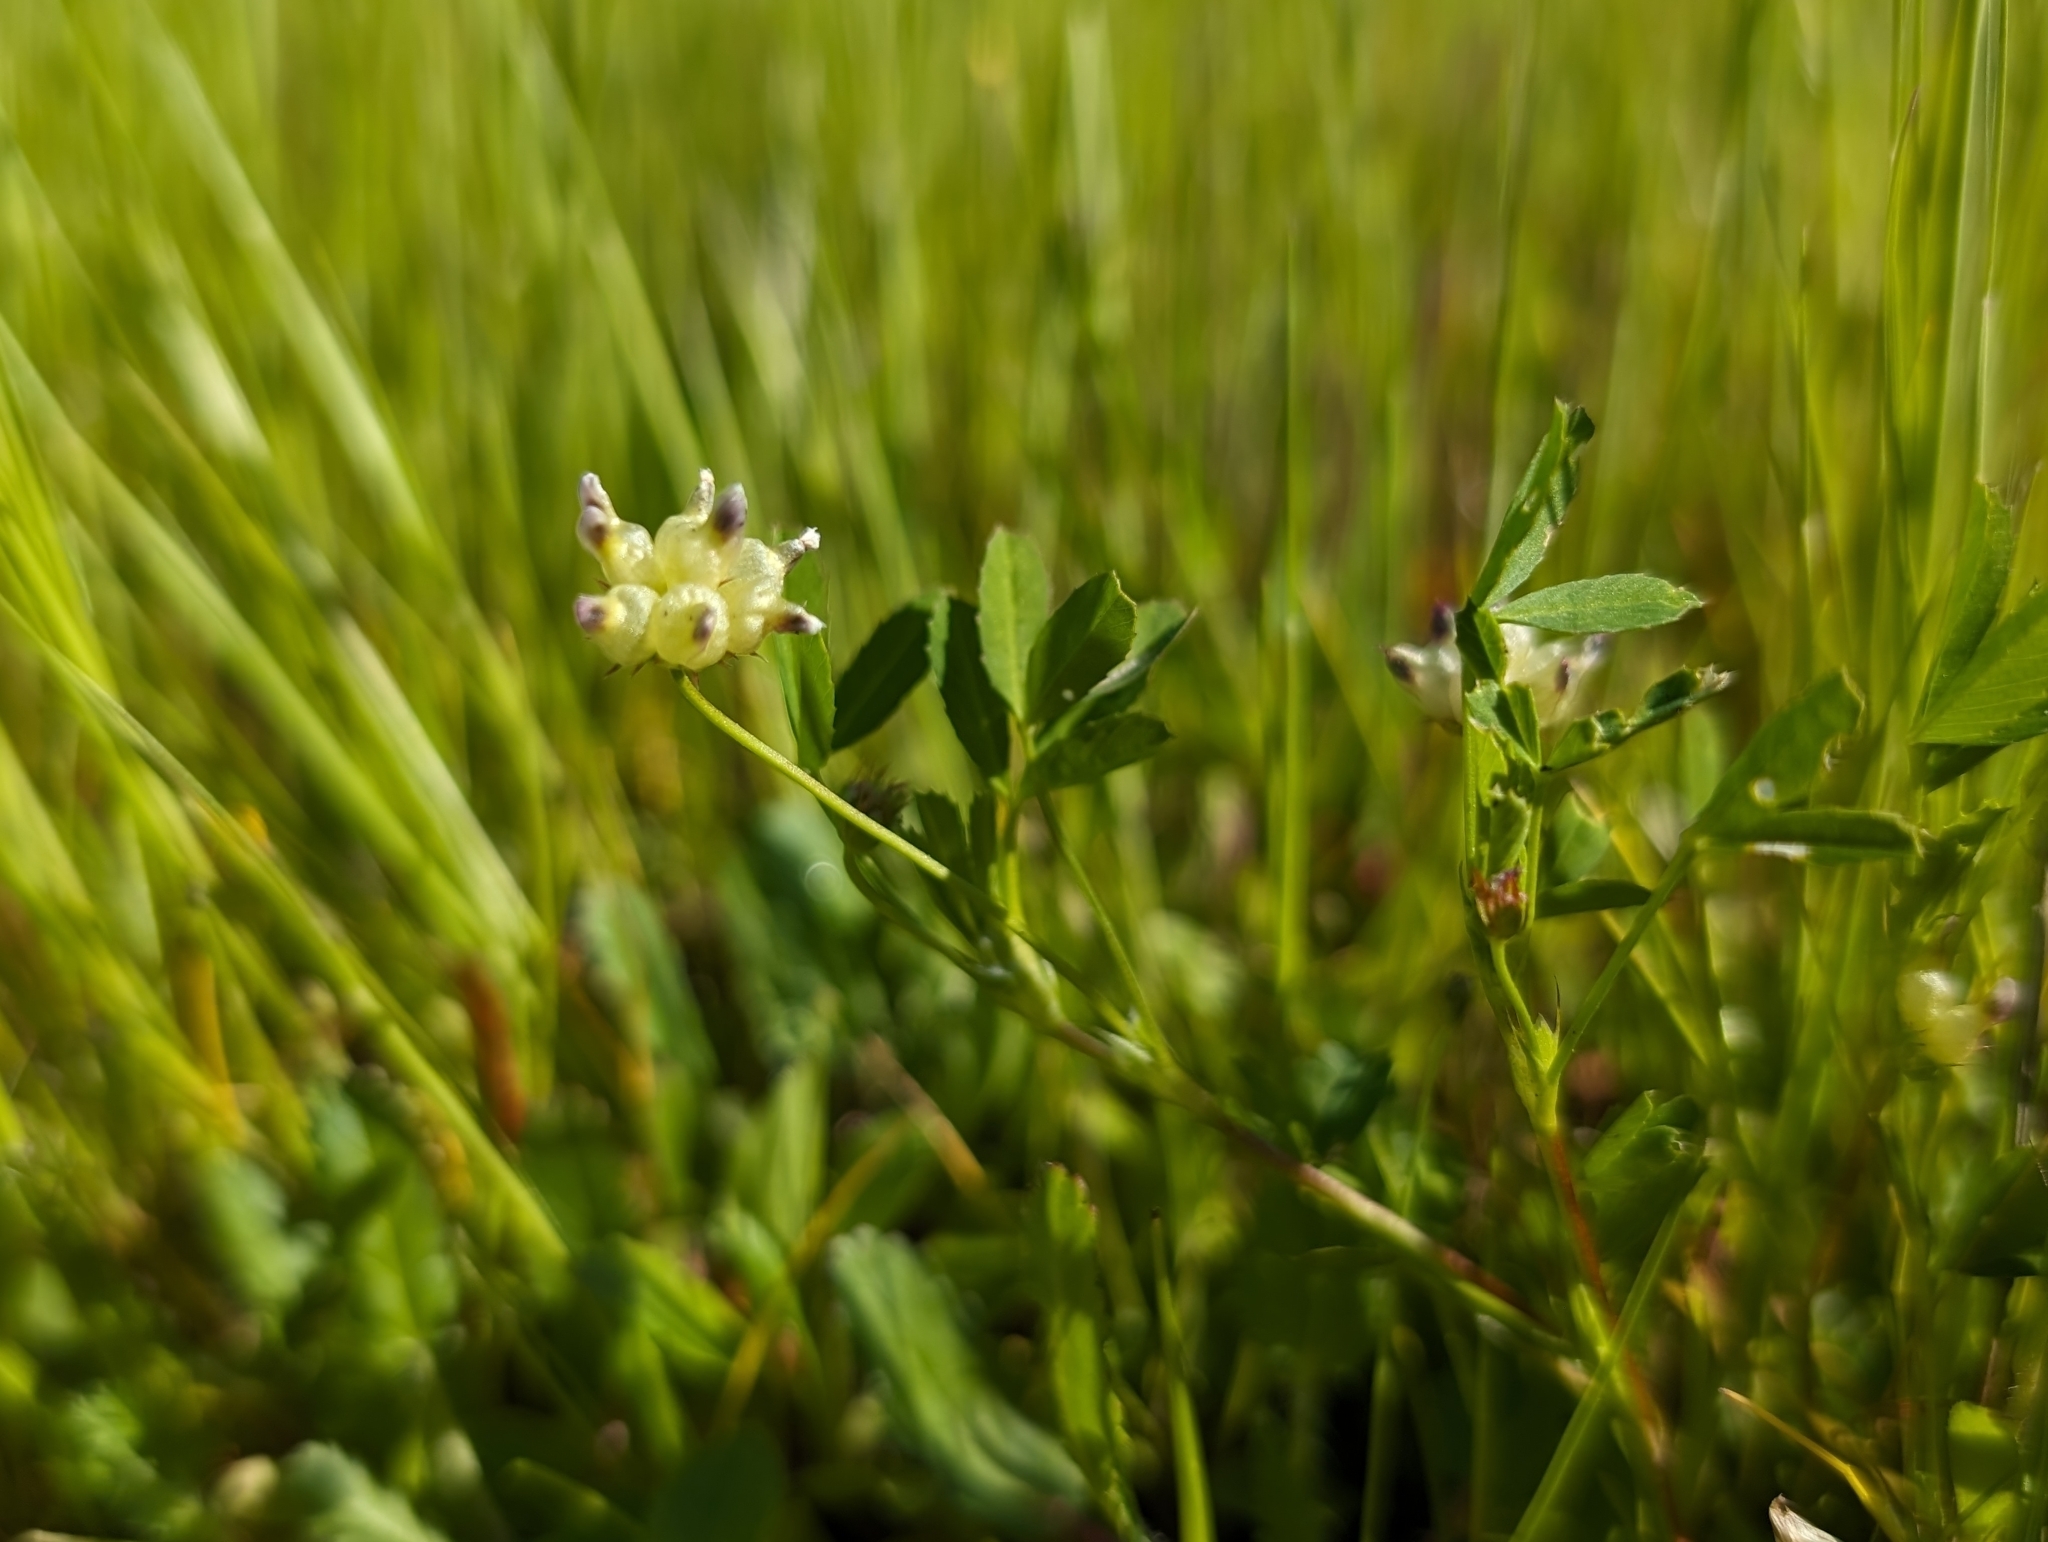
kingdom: Plantae
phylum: Tracheophyta
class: Magnoliopsida
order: Fabales
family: Fabaceae
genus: Trifolium
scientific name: Trifolium depauperatum
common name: Poverty clover
